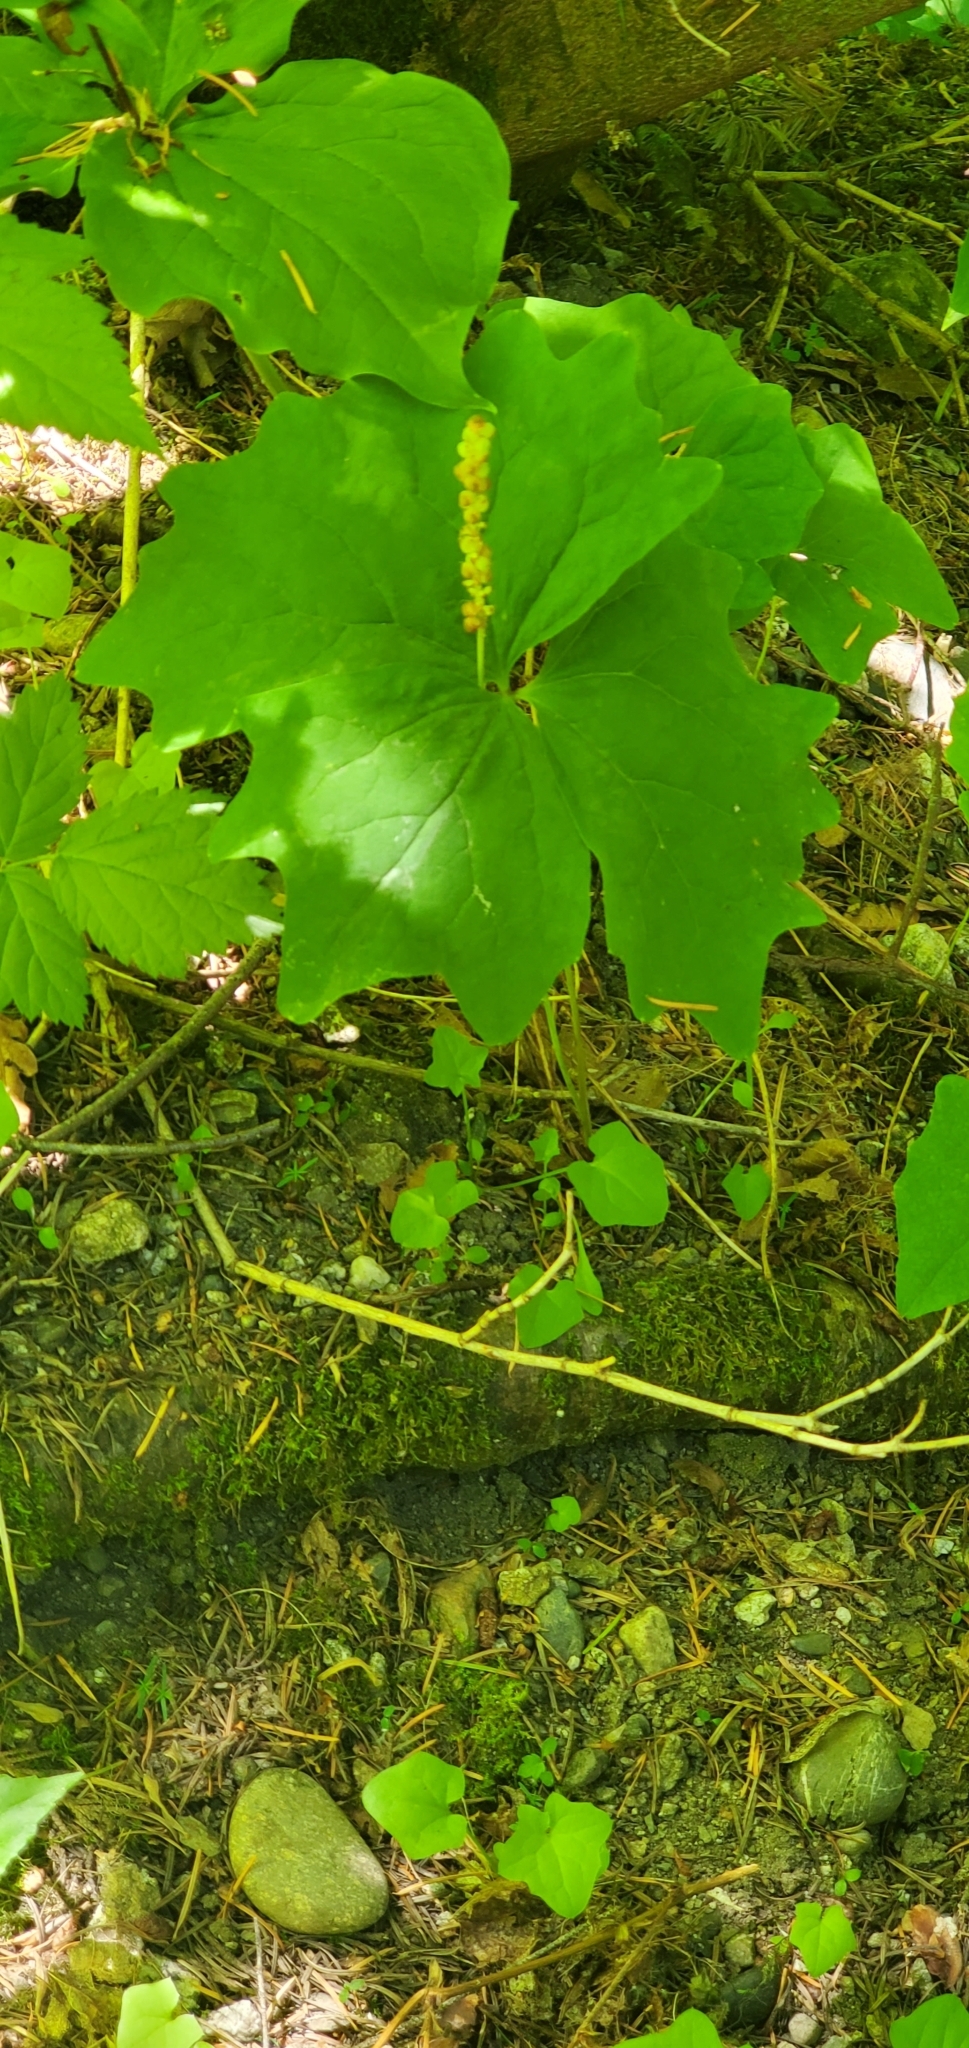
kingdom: Plantae
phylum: Tracheophyta
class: Magnoliopsida
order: Ranunculales
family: Berberidaceae
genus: Achlys
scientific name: Achlys triphylla
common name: Vanilla-leaf
